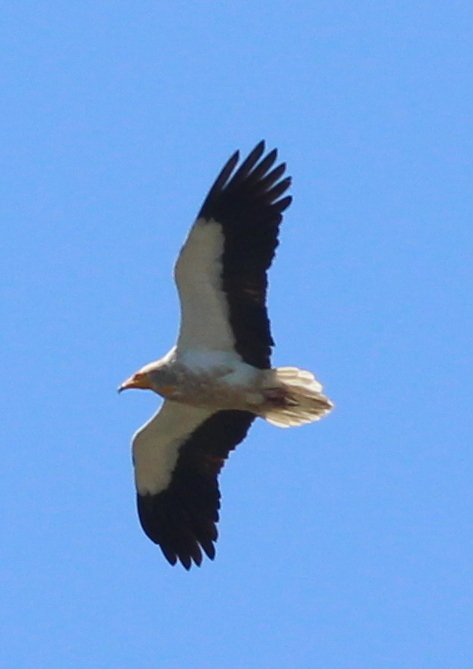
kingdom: Animalia
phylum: Chordata
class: Aves
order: Accipitriformes
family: Accipitridae
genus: Neophron
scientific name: Neophron percnopterus
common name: Egyptian vulture
